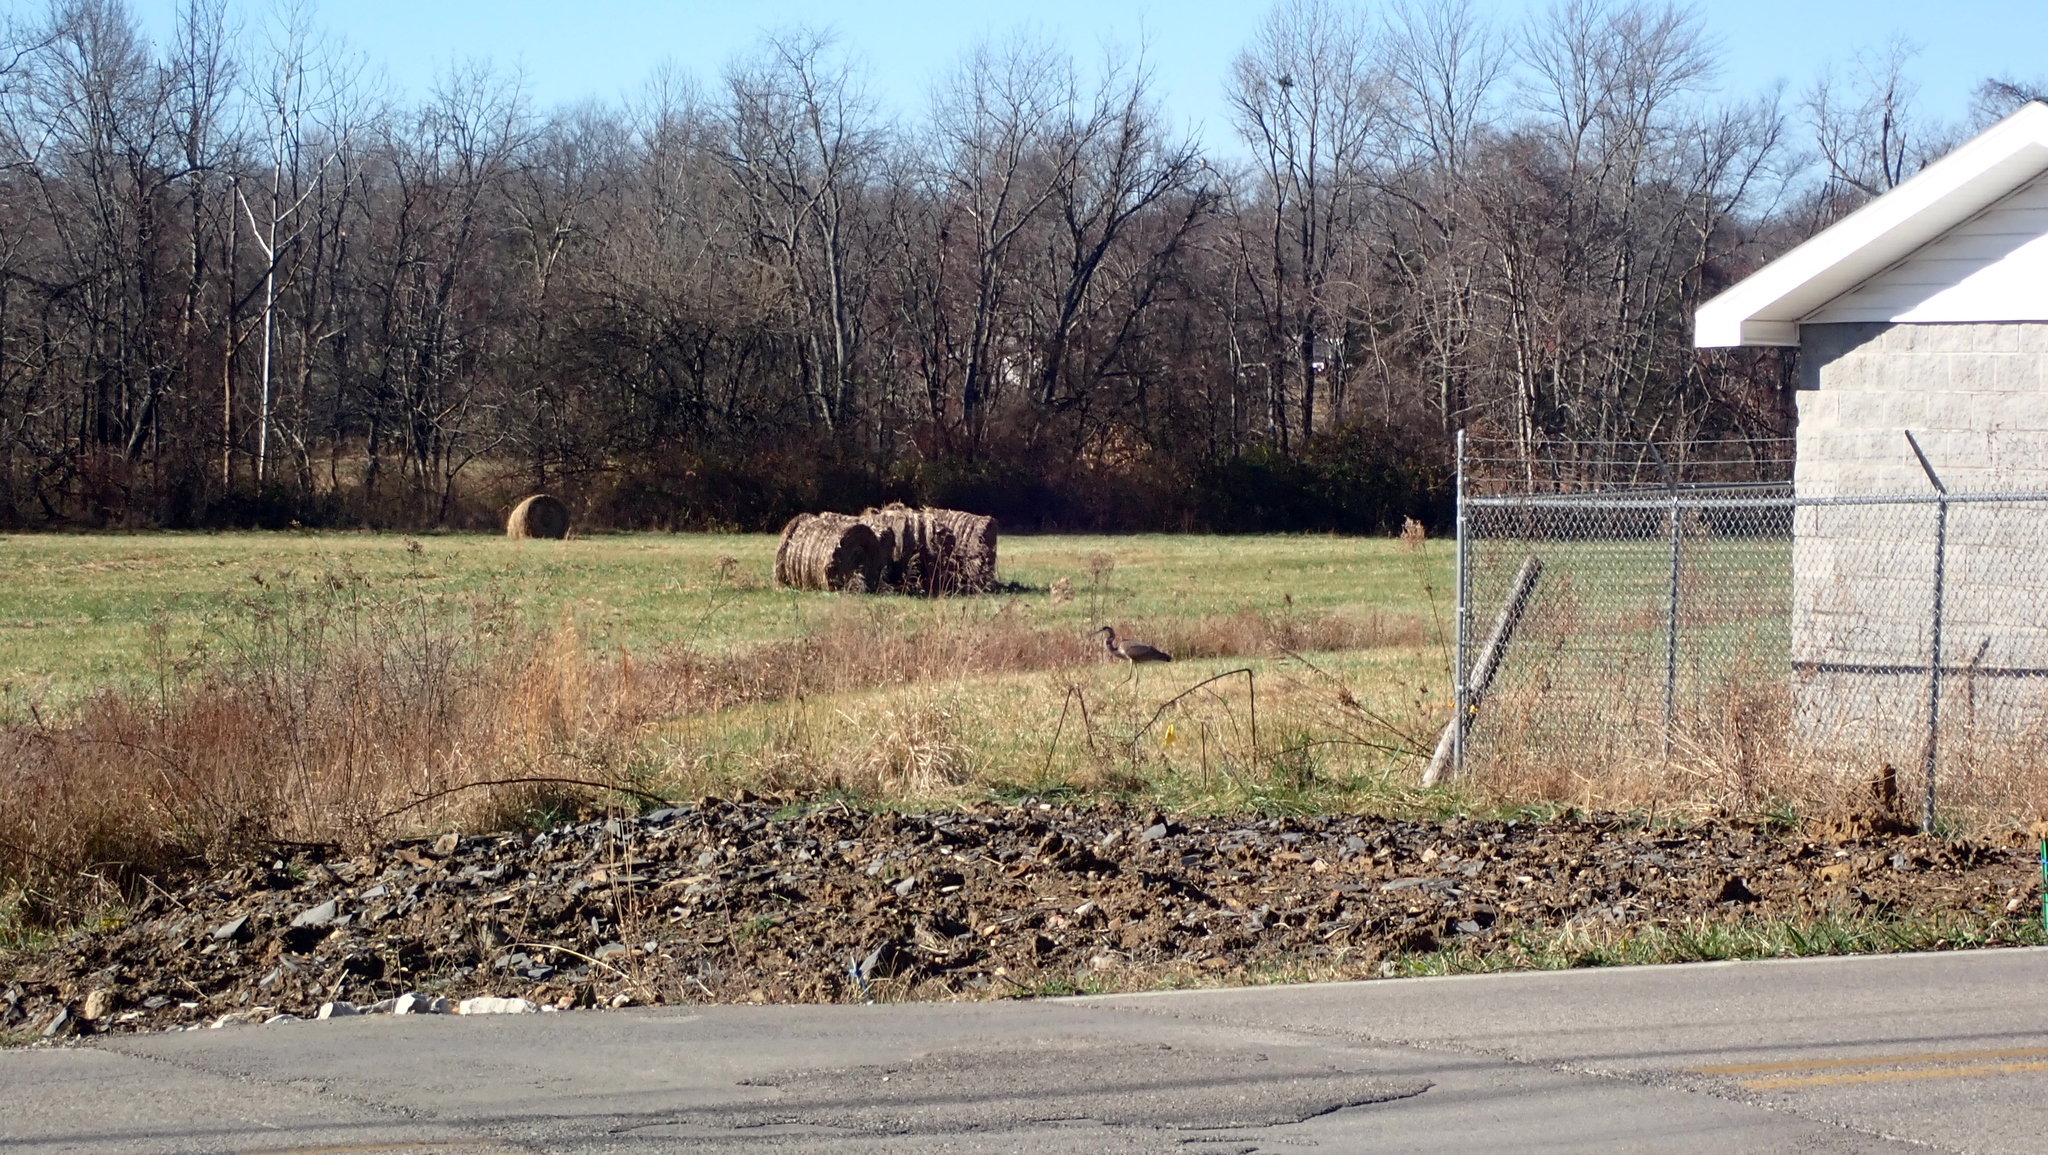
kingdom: Animalia
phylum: Chordata
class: Aves
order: Pelecaniformes
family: Ardeidae
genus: Ardea
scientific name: Ardea herodias
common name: Great blue heron
